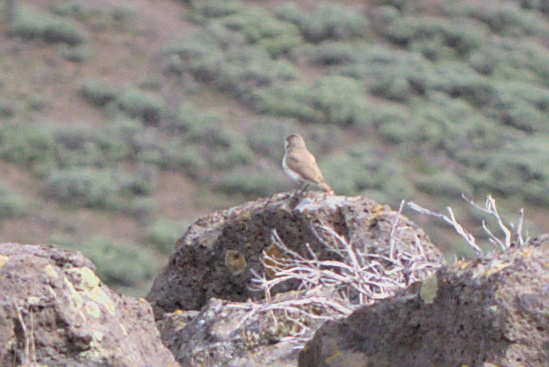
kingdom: Animalia
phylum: Chordata
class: Aves
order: Passeriformes
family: Troglodytidae
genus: Salpinctes
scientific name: Salpinctes obsoletus
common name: Rock wren
